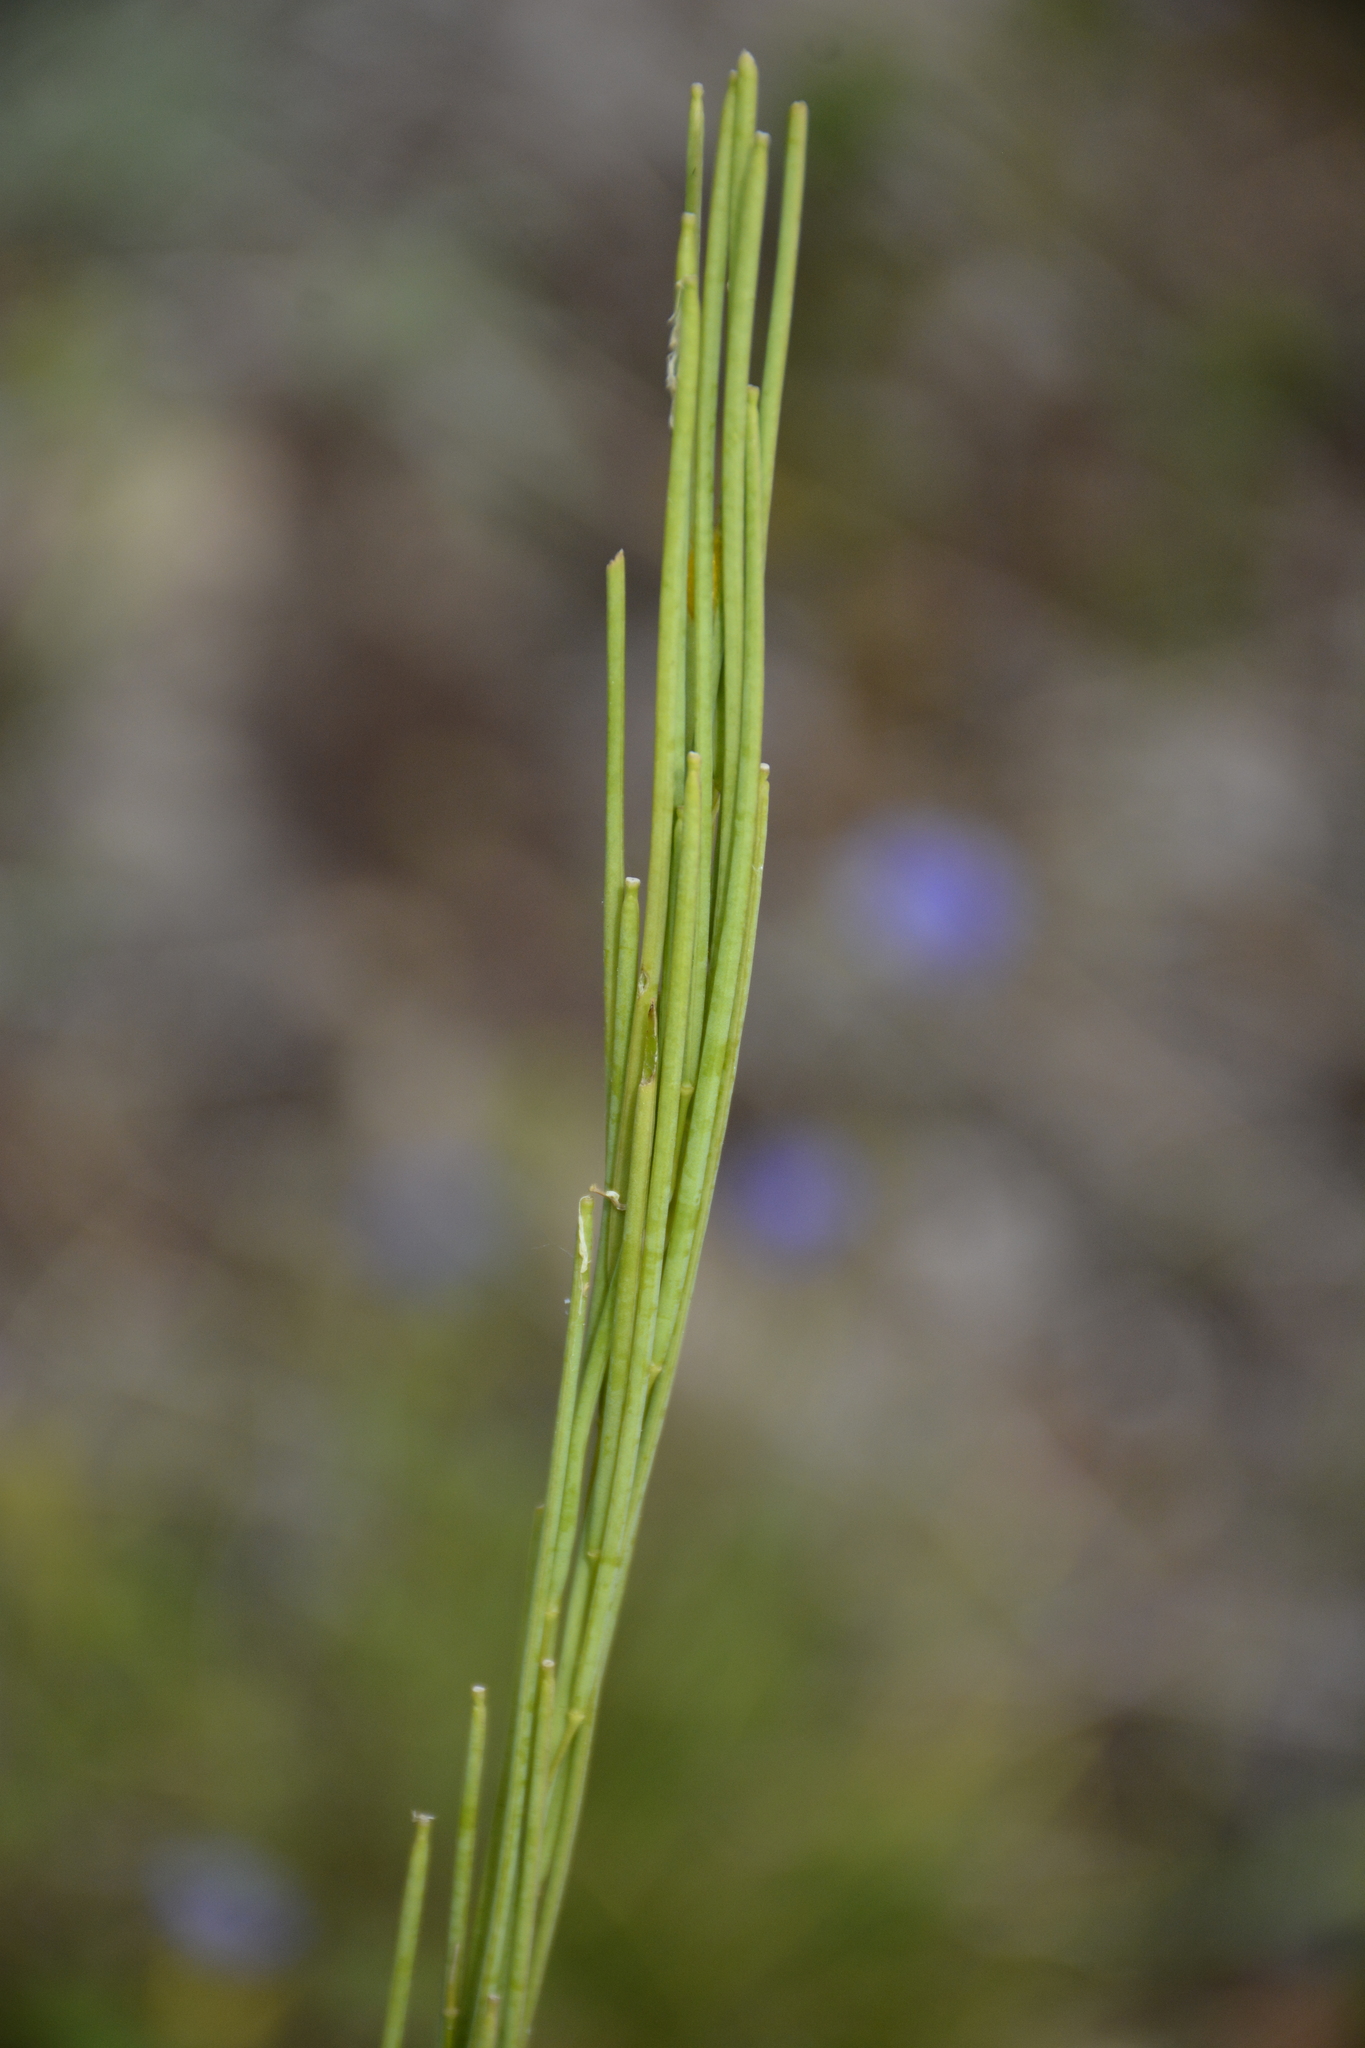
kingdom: Plantae
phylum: Tracheophyta
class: Magnoliopsida
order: Brassicales
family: Brassicaceae
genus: Turritis
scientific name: Turritis glabra
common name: Tower rockcress
